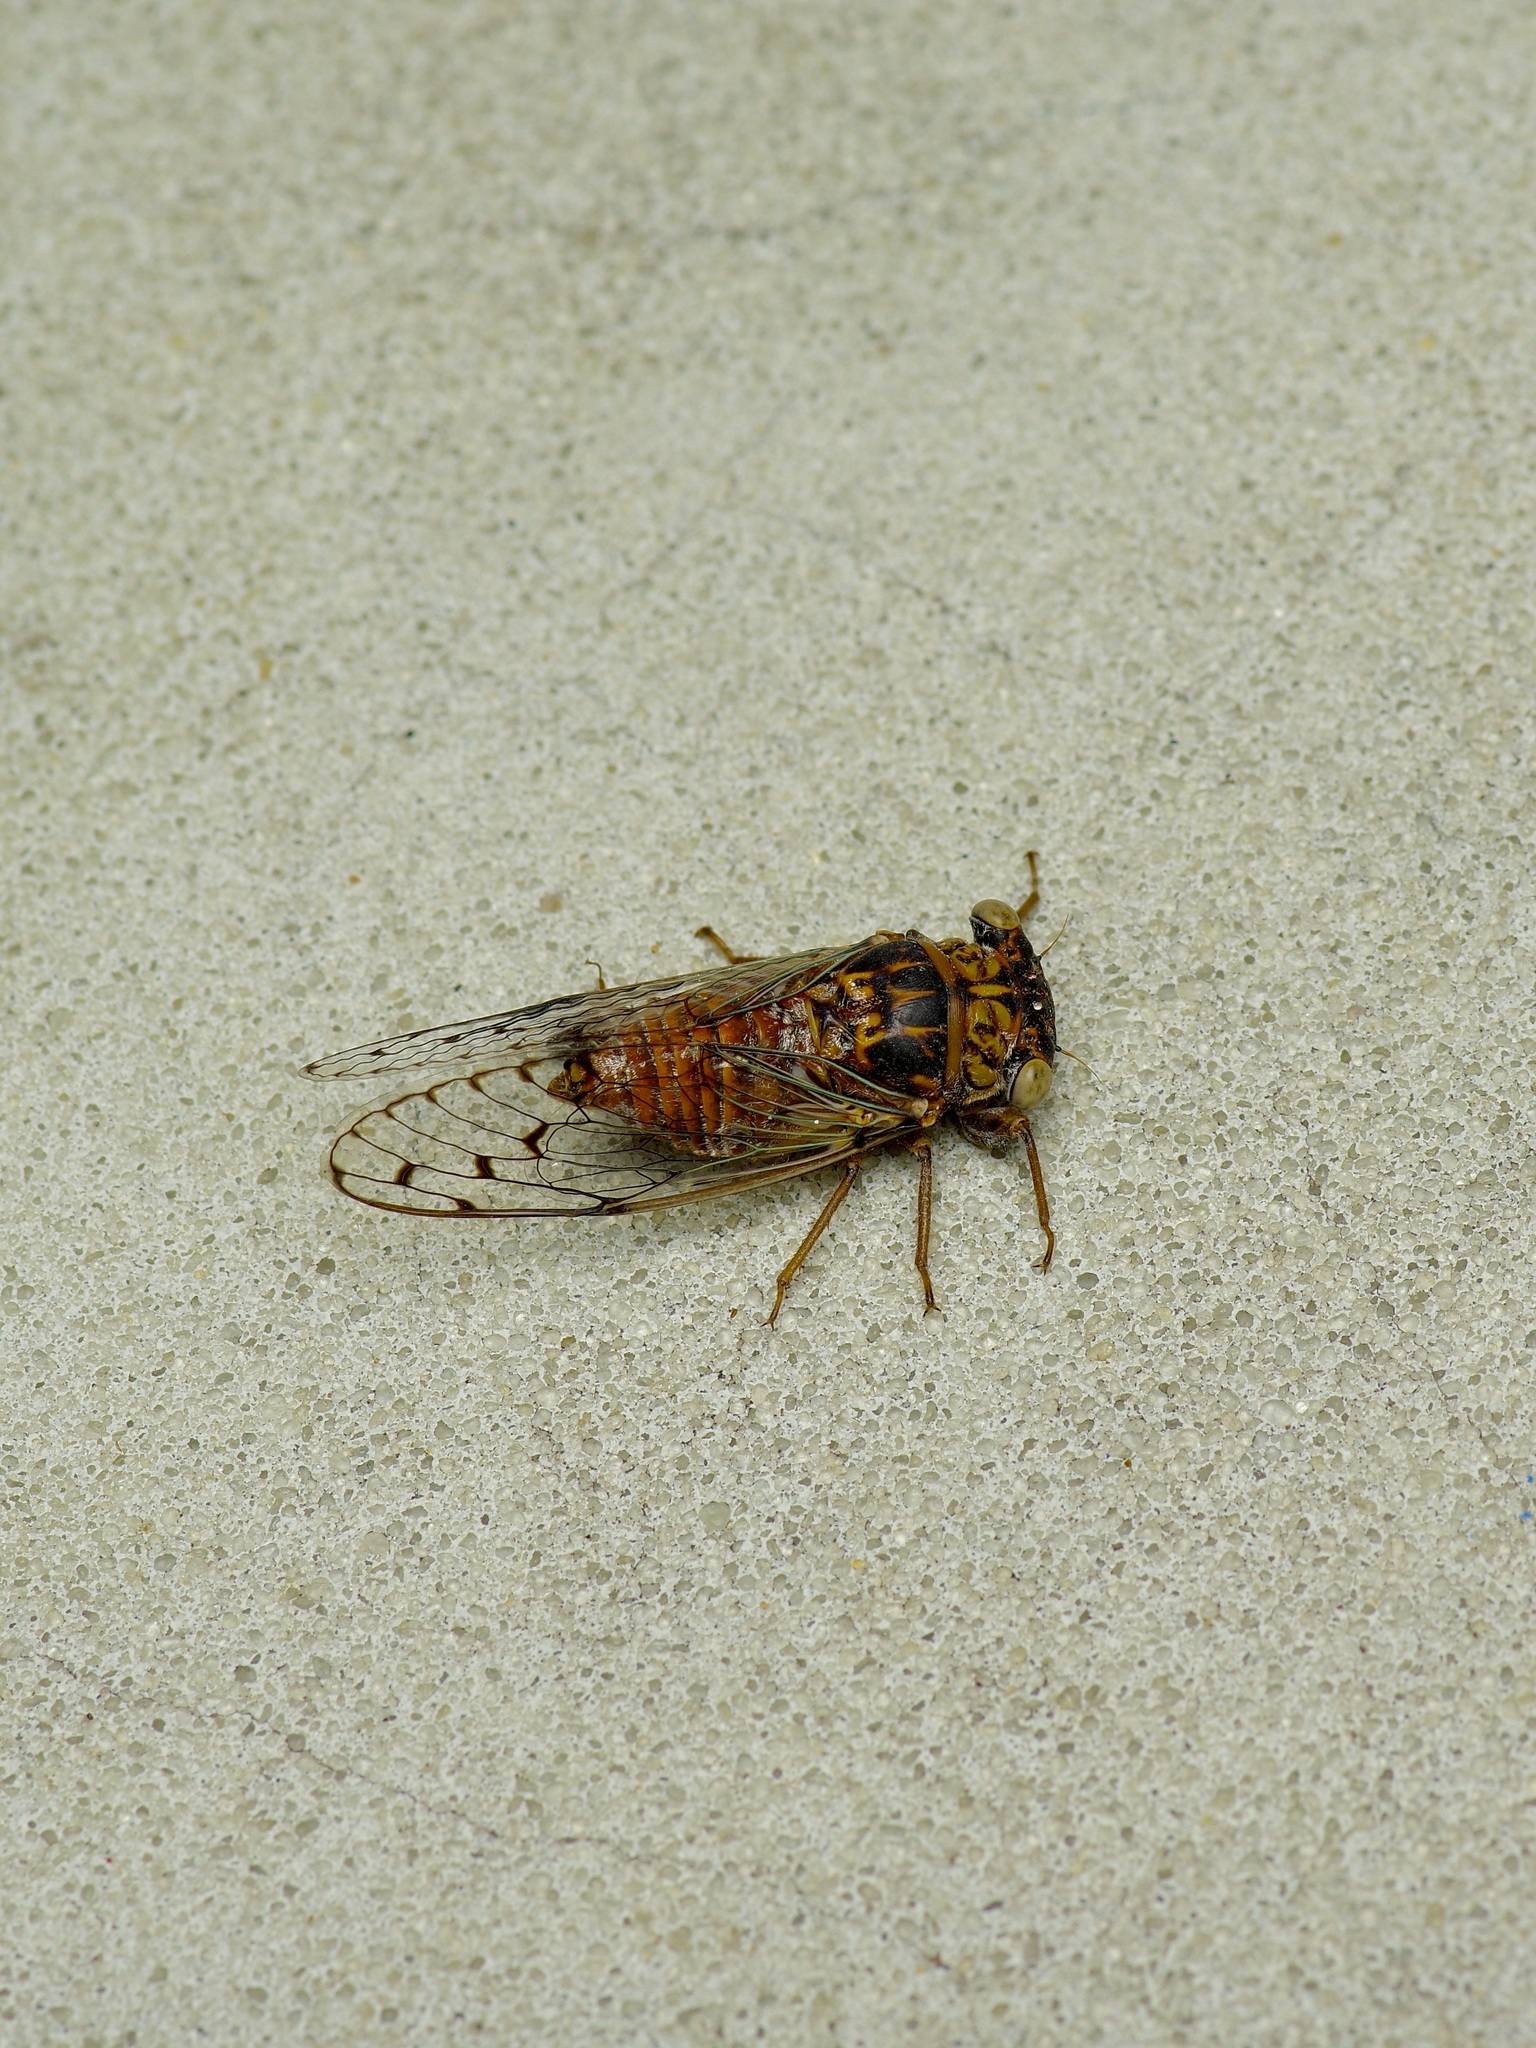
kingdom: Animalia
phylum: Arthropoda
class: Insecta
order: Hemiptera
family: Cicadidae
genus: Pacarina
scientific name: Pacarina puella
